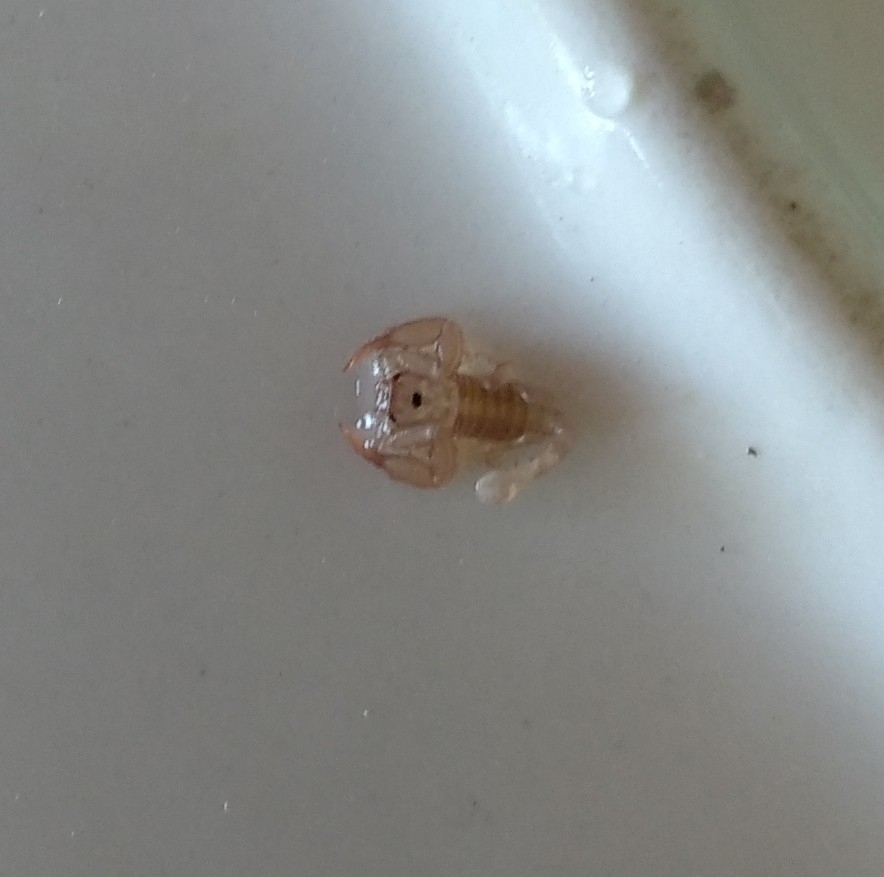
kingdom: Animalia
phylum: Arthropoda
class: Arachnida
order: Scorpiones
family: Euscorpiidae
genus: Euscorpius
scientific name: Euscorpius
